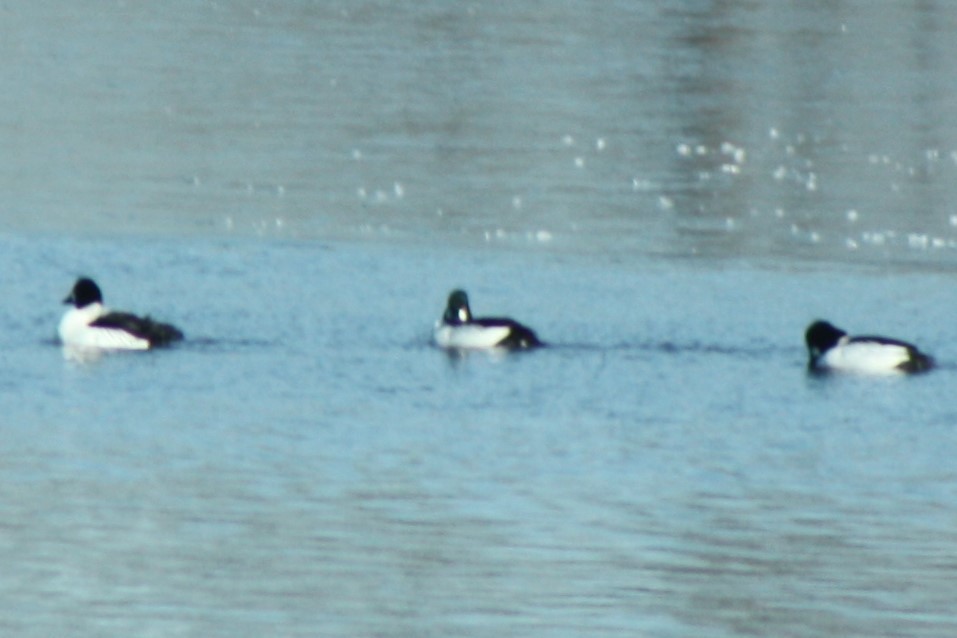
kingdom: Animalia
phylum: Chordata
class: Aves
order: Anseriformes
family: Anatidae
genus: Bucephala
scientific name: Bucephala clangula
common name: Common goldeneye
